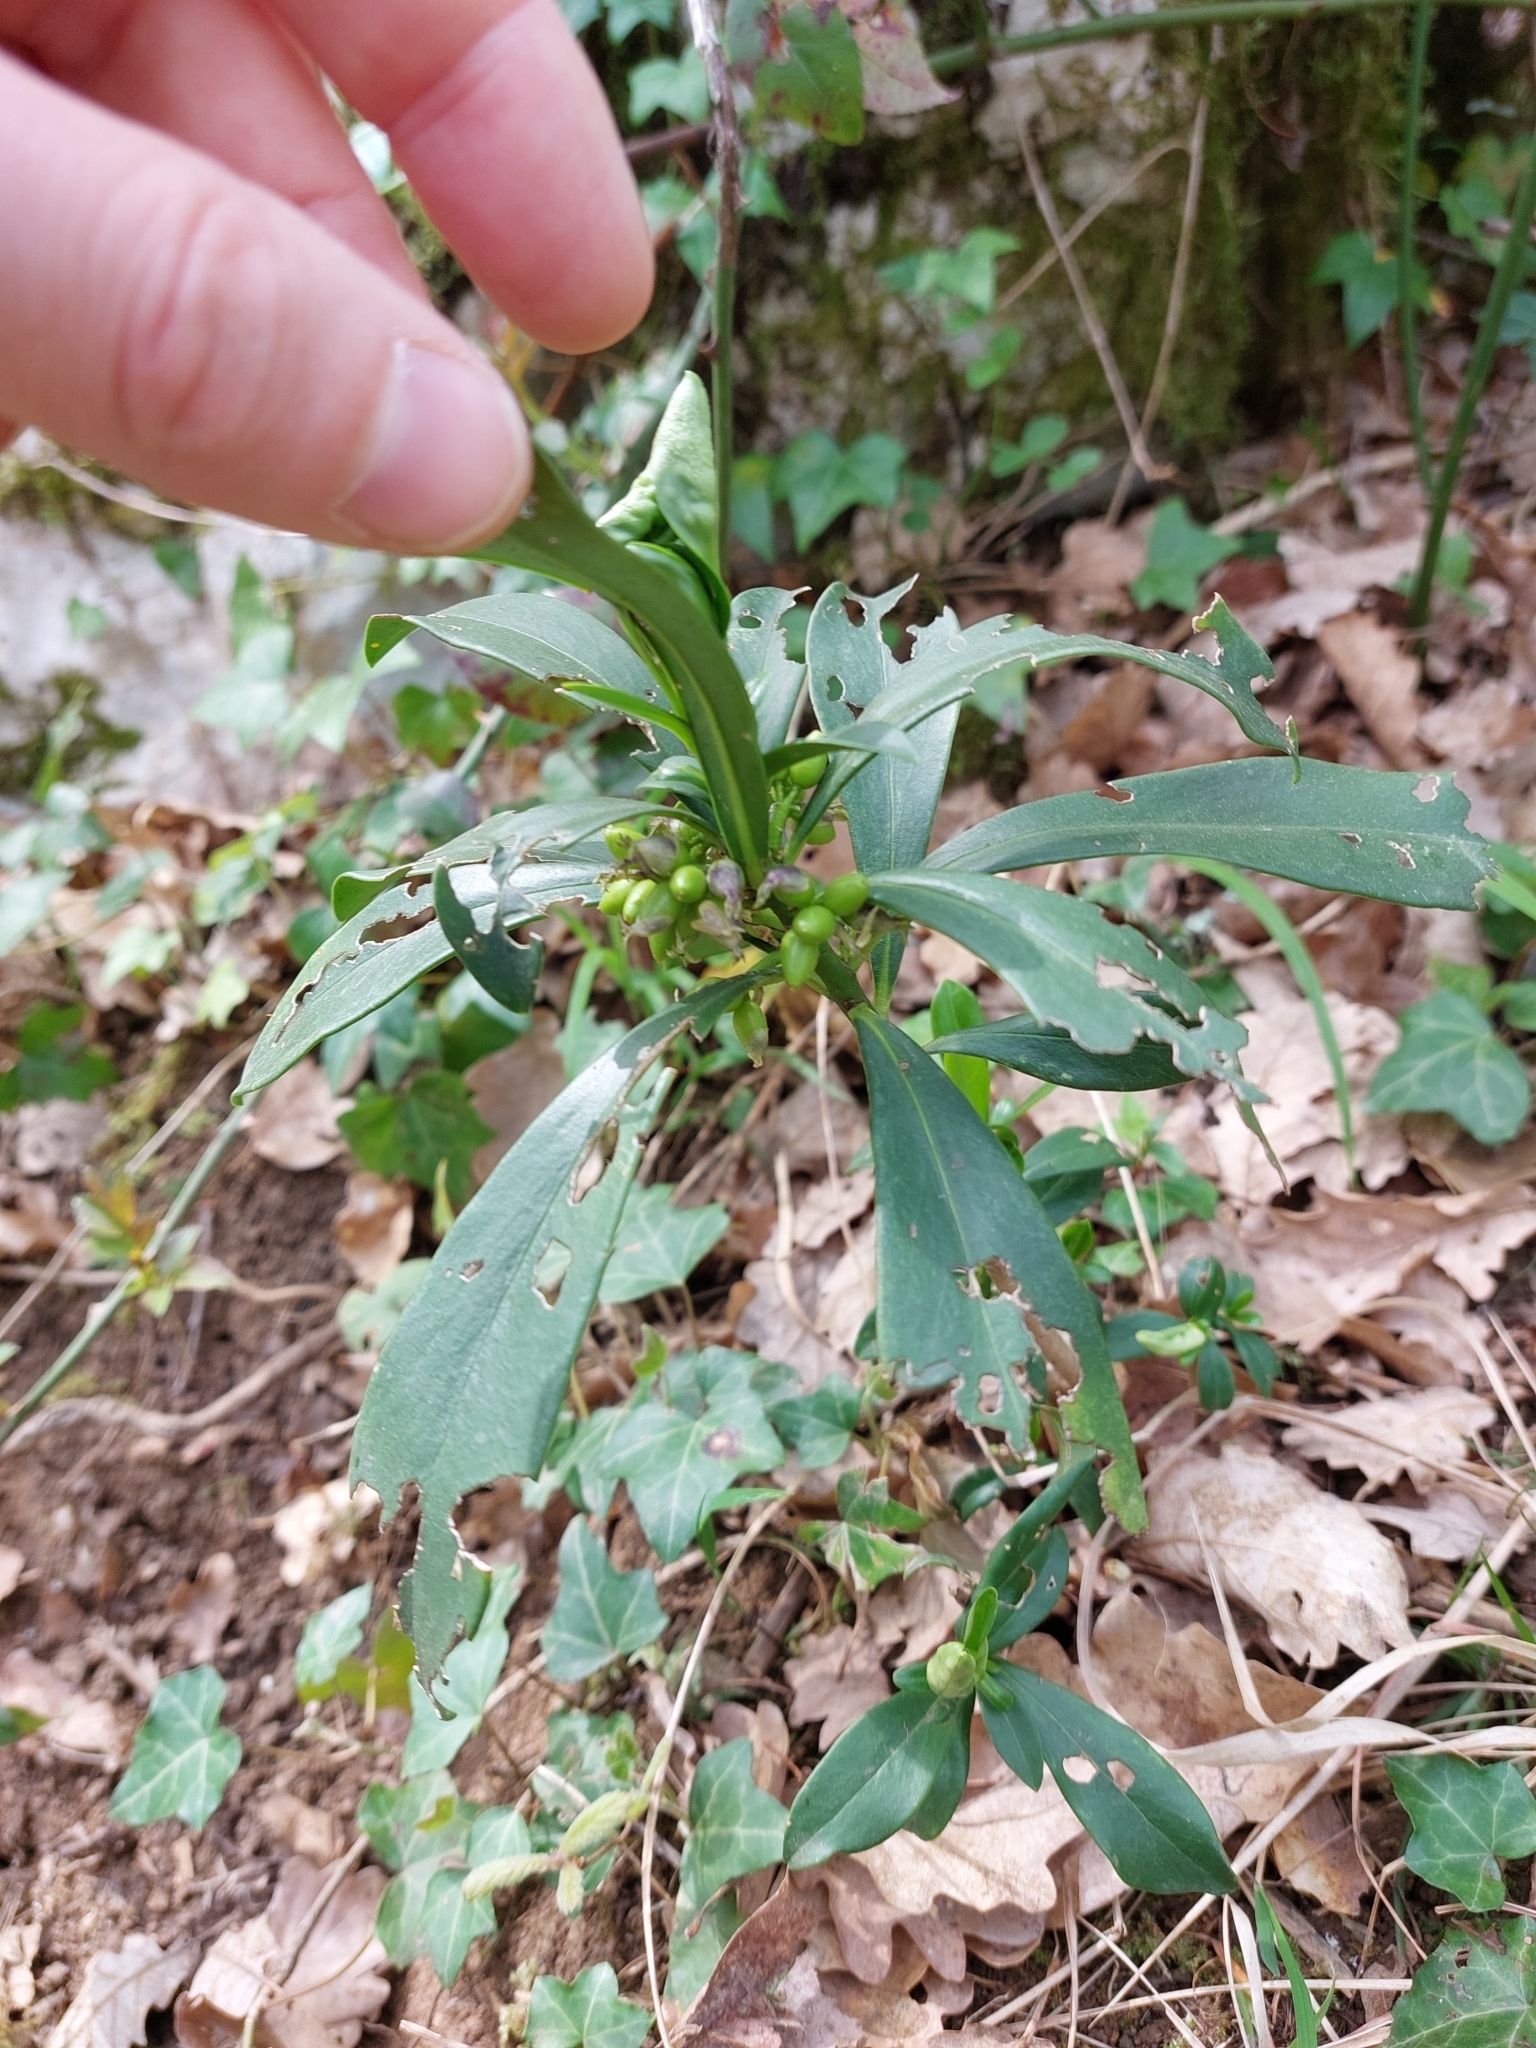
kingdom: Plantae
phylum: Tracheophyta
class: Magnoliopsida
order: Malvales
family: Thymelaeaceae
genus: Daphne
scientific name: Daphne laureola
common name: Spurge-laurel
